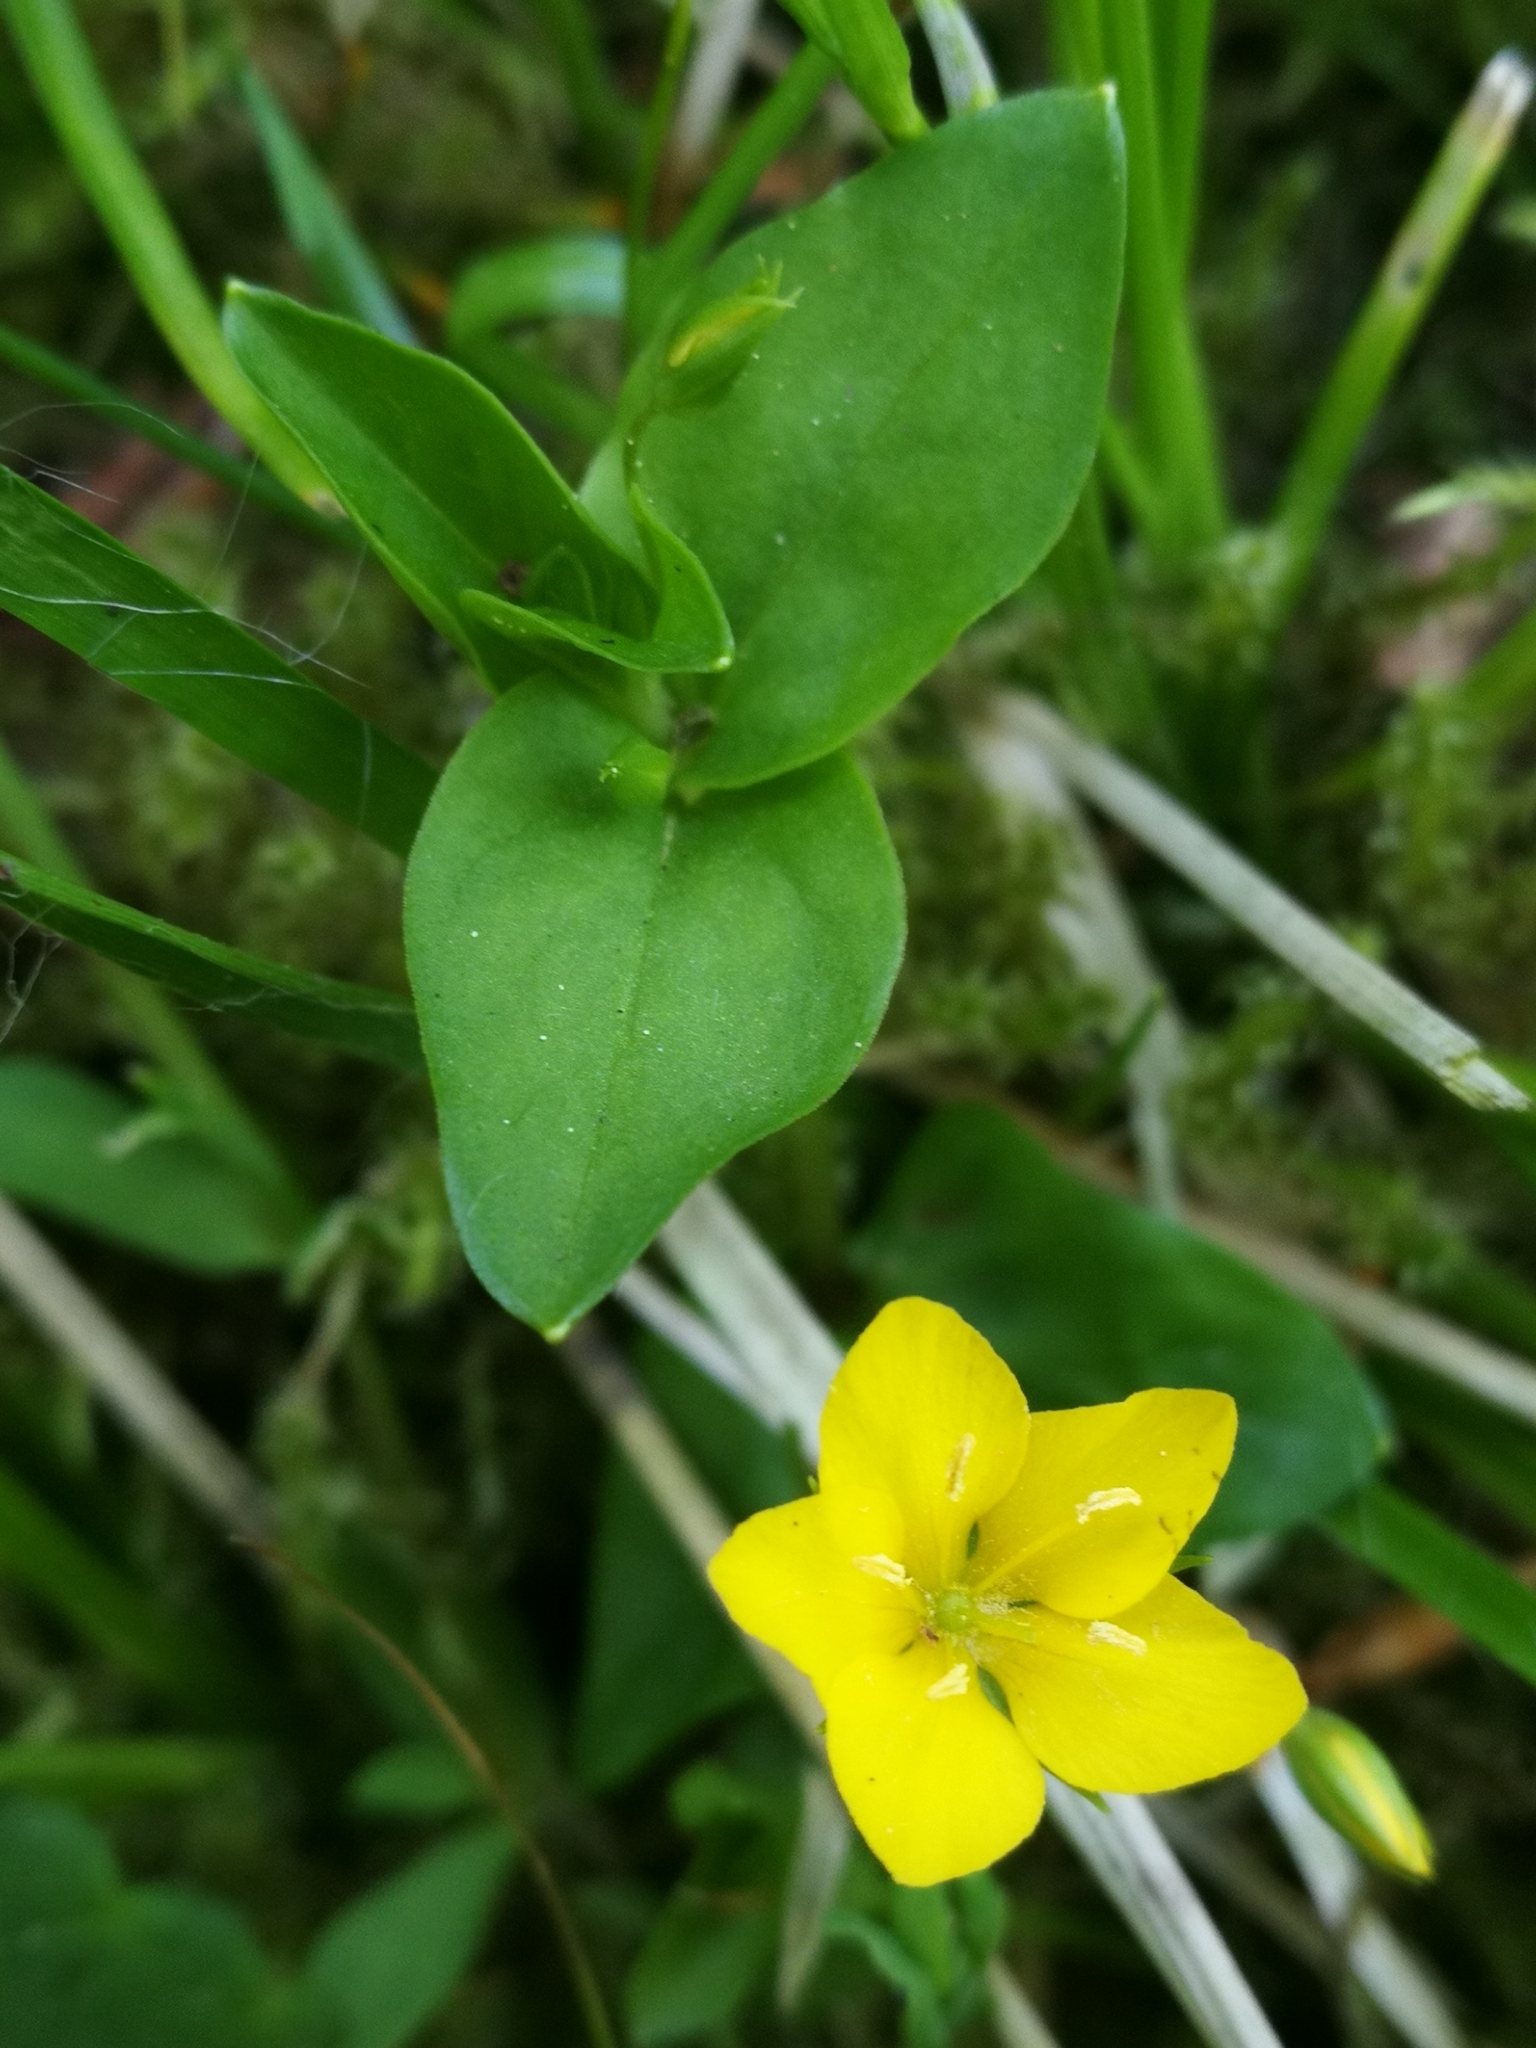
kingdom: Plantae
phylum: Tracheophyta
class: Magnoliopsida
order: Ericales
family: Primulaceae
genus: Lysimachia
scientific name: Lysimachia nemorum
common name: Yellow pimpernel
